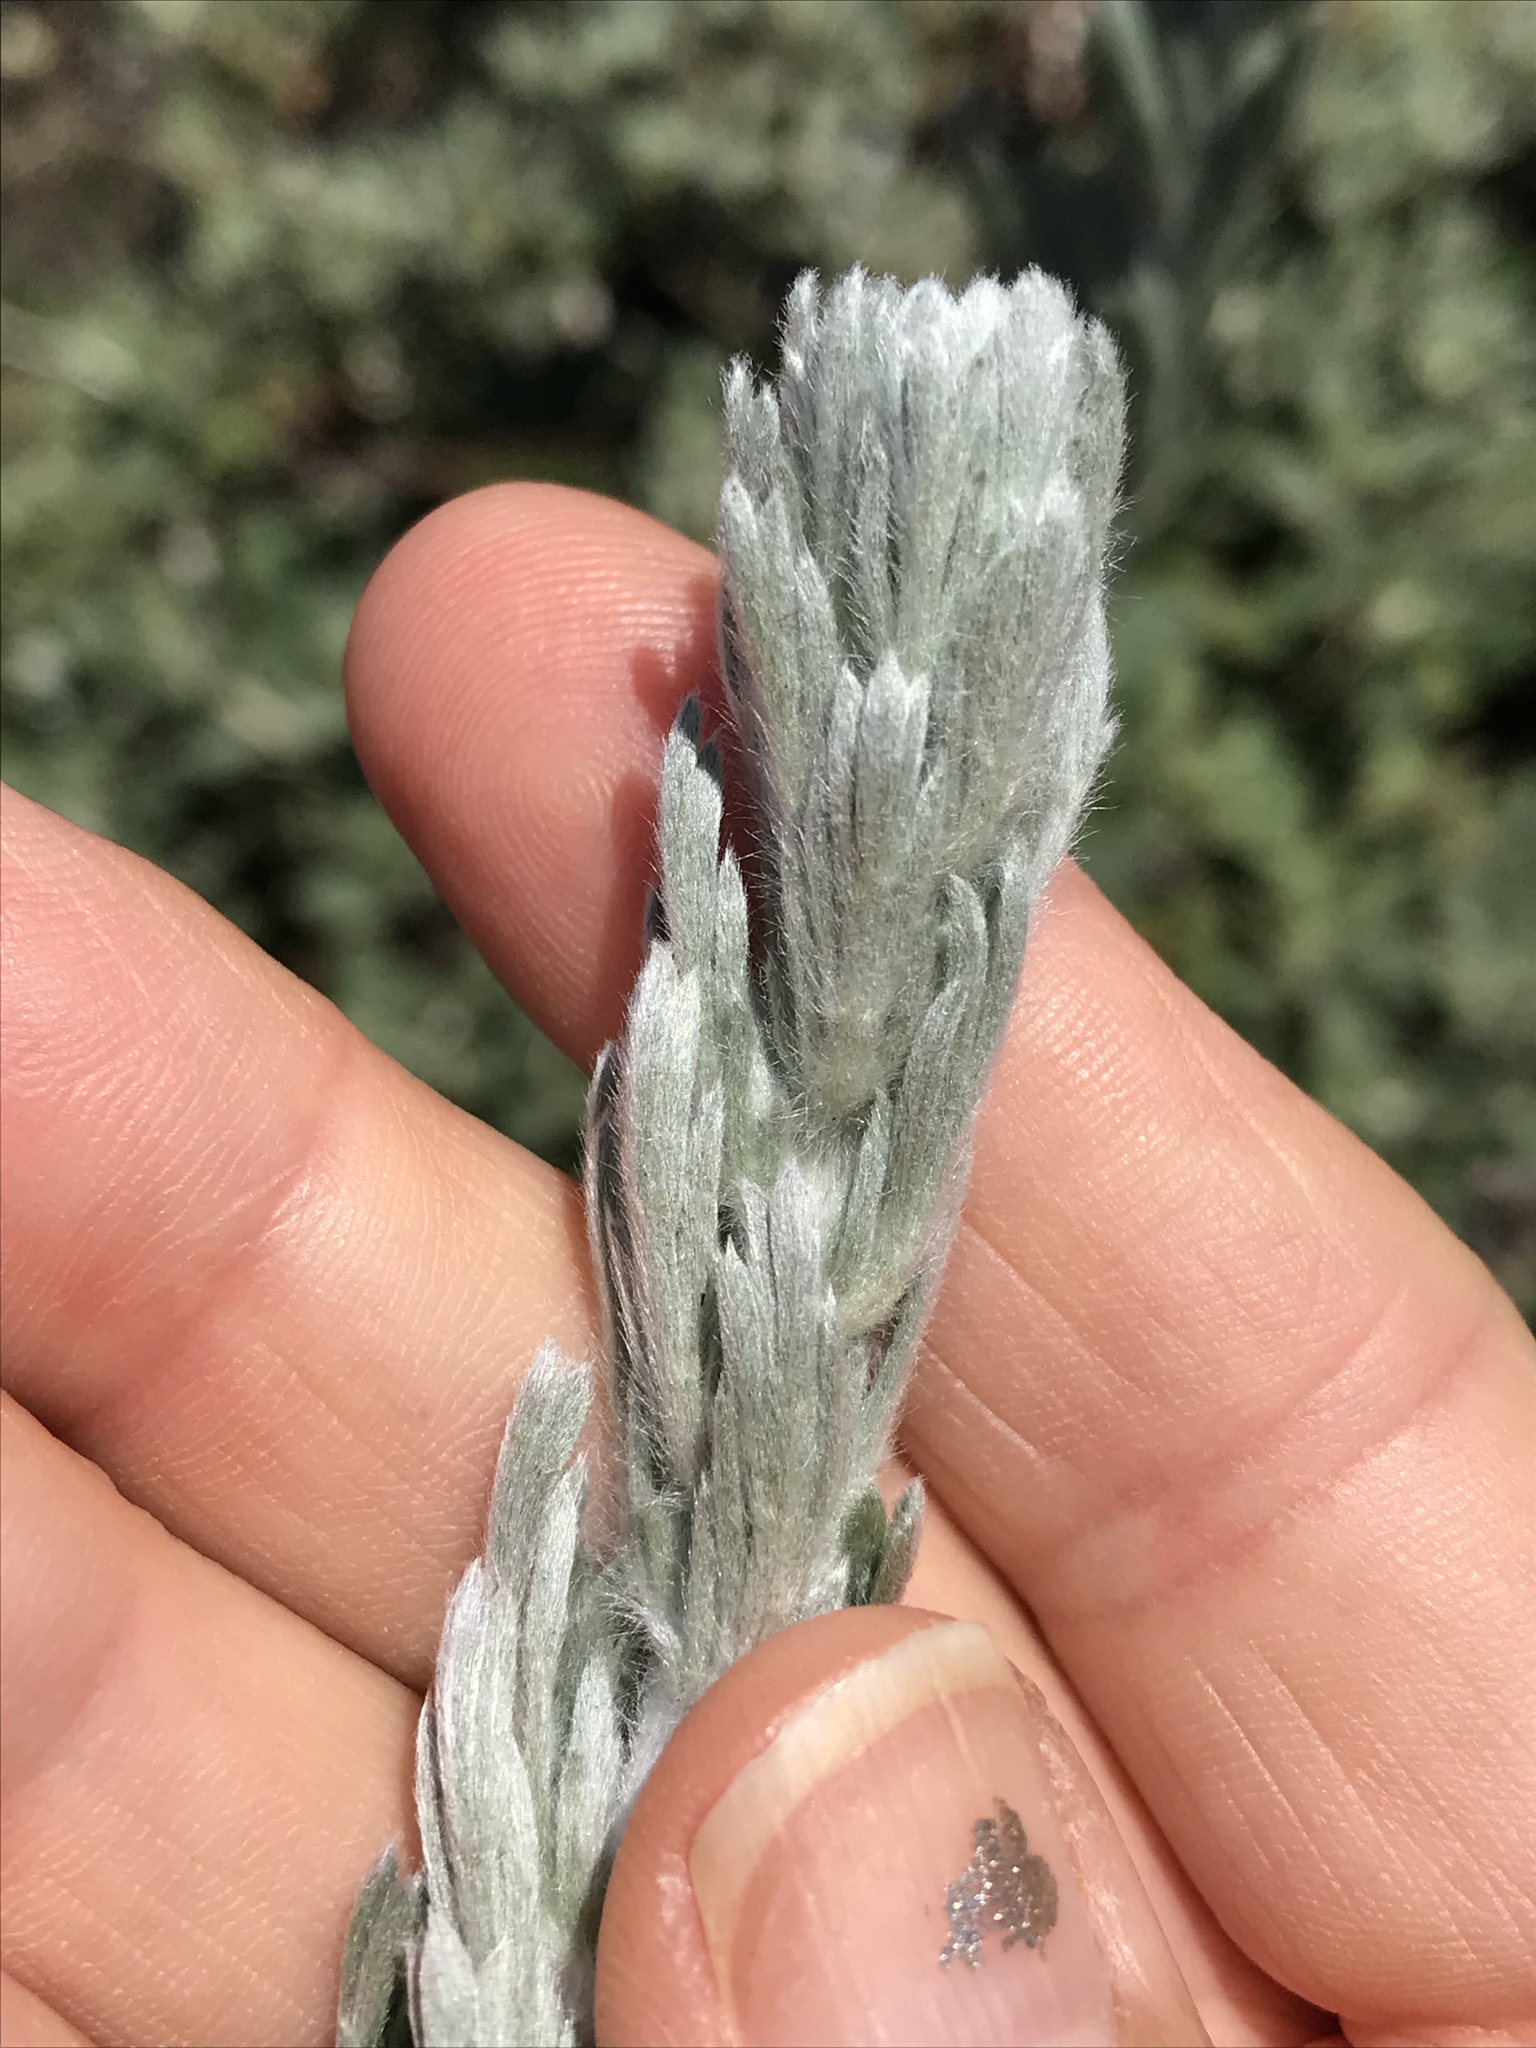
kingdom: Plantae
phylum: Tracheophyta
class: Magnoliopsida
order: Asterales
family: Asteraceae
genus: Artemisia
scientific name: Artemisia pycnocephala
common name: Coastal sagewort
